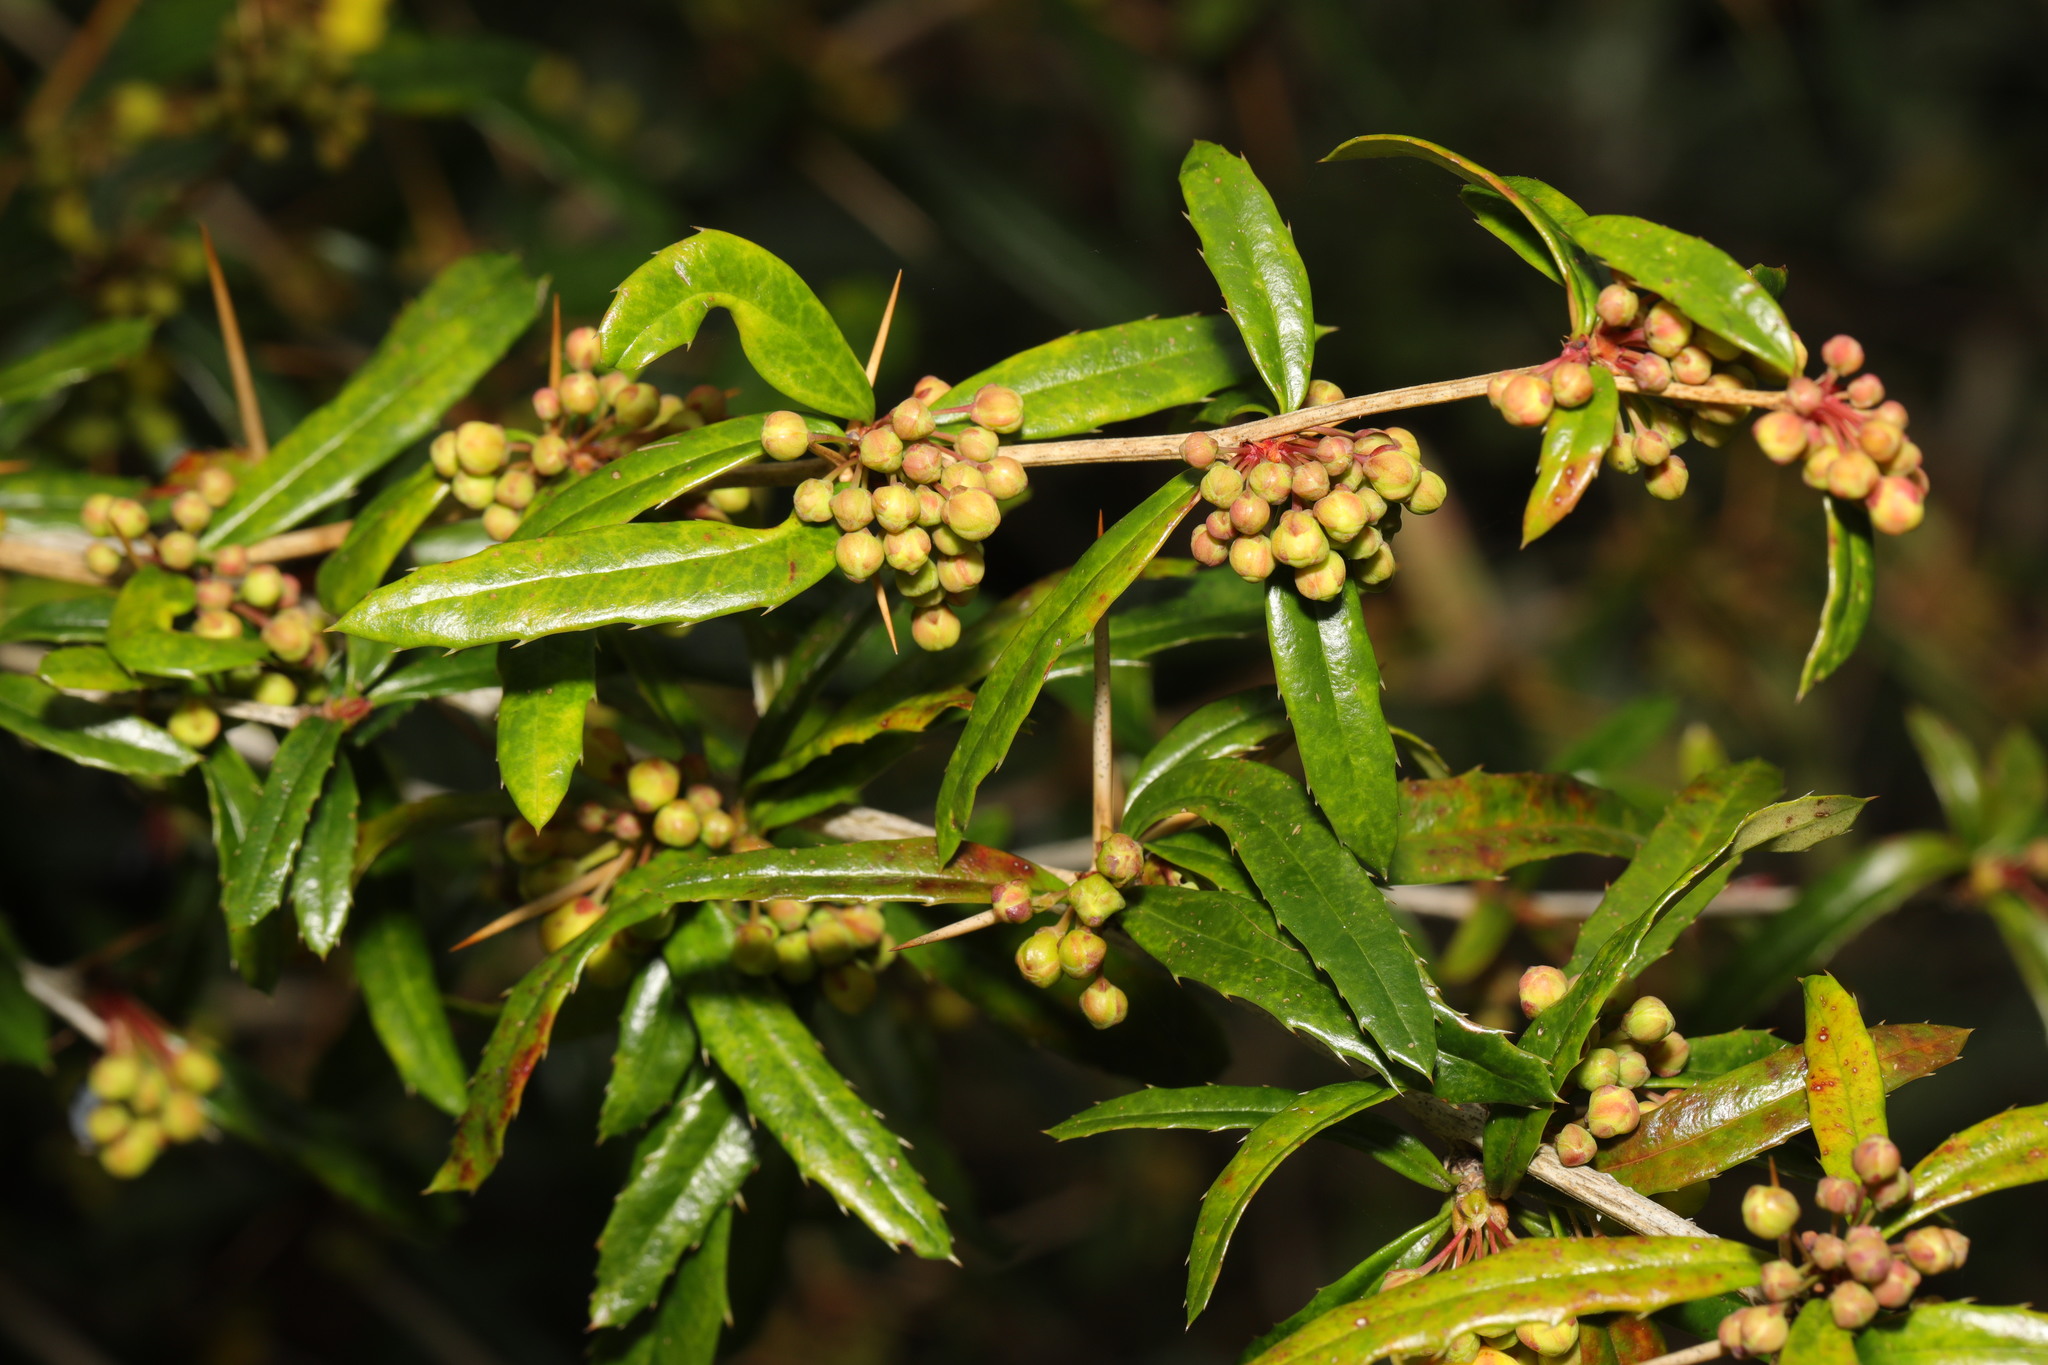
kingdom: Plantae
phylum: Tracheophyta
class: Magnoliopsida
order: Ranunculales
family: Berberidaceae
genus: Berberis
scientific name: Berberis julianae
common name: Wintergreen barberry
